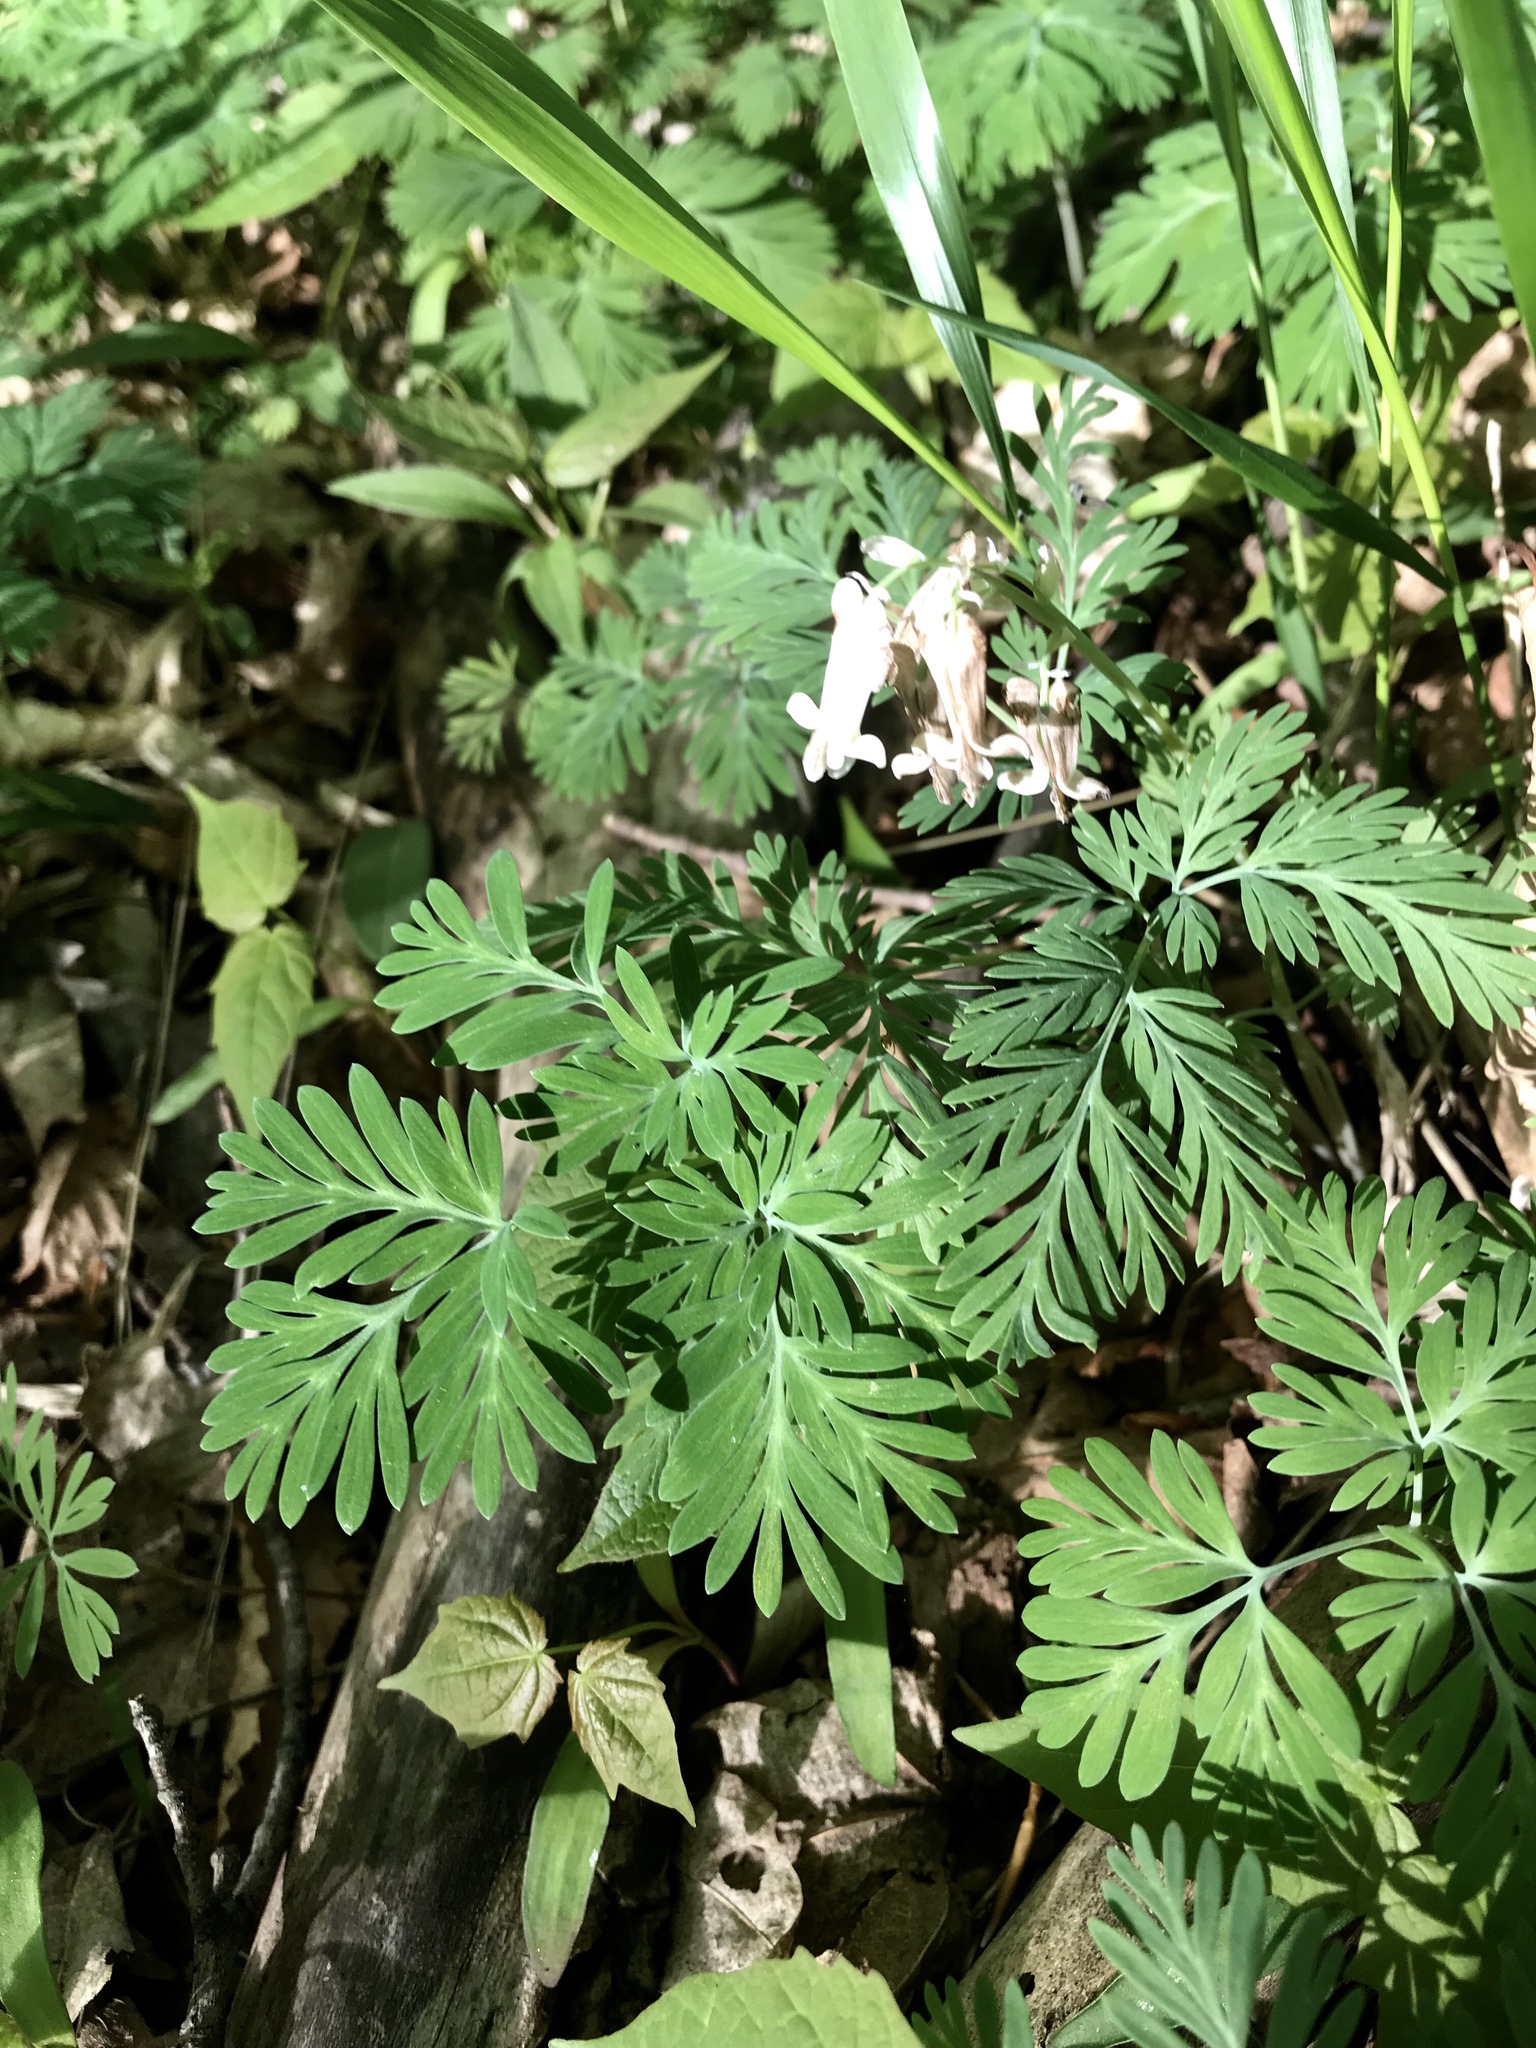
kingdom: Plantae
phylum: Tracheophyta
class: Magnoliopsida
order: Ranunculales
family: Papaveraceae
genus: Dicentra
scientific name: Dicentra canadensis
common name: Squirrel-corn
